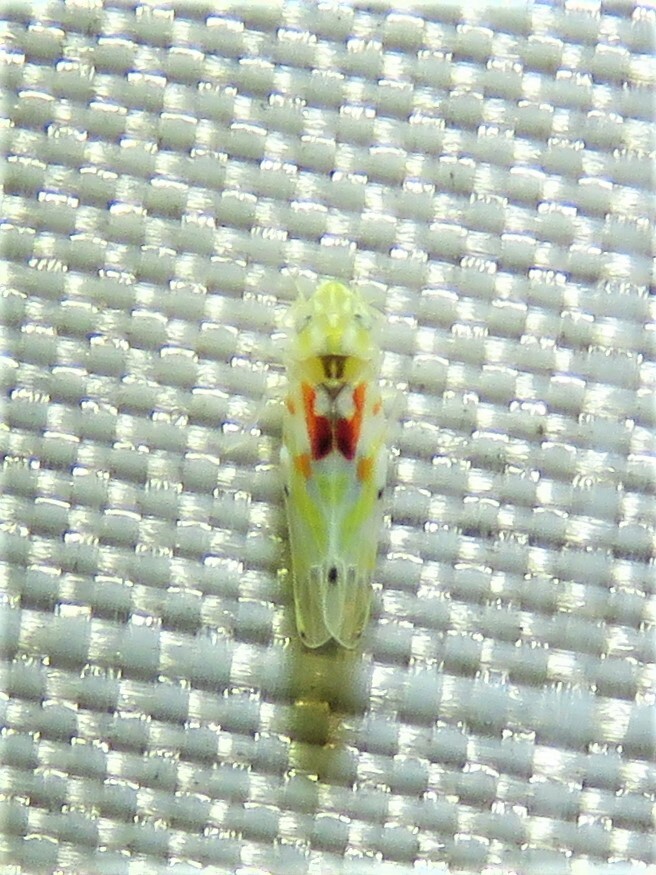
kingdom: Animalia
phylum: Arthropoda
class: Insecta
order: Hemiptera
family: Cicadellidae
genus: Erythroneura
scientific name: Erythroneura octonotata
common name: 8-spotted leafhopper
